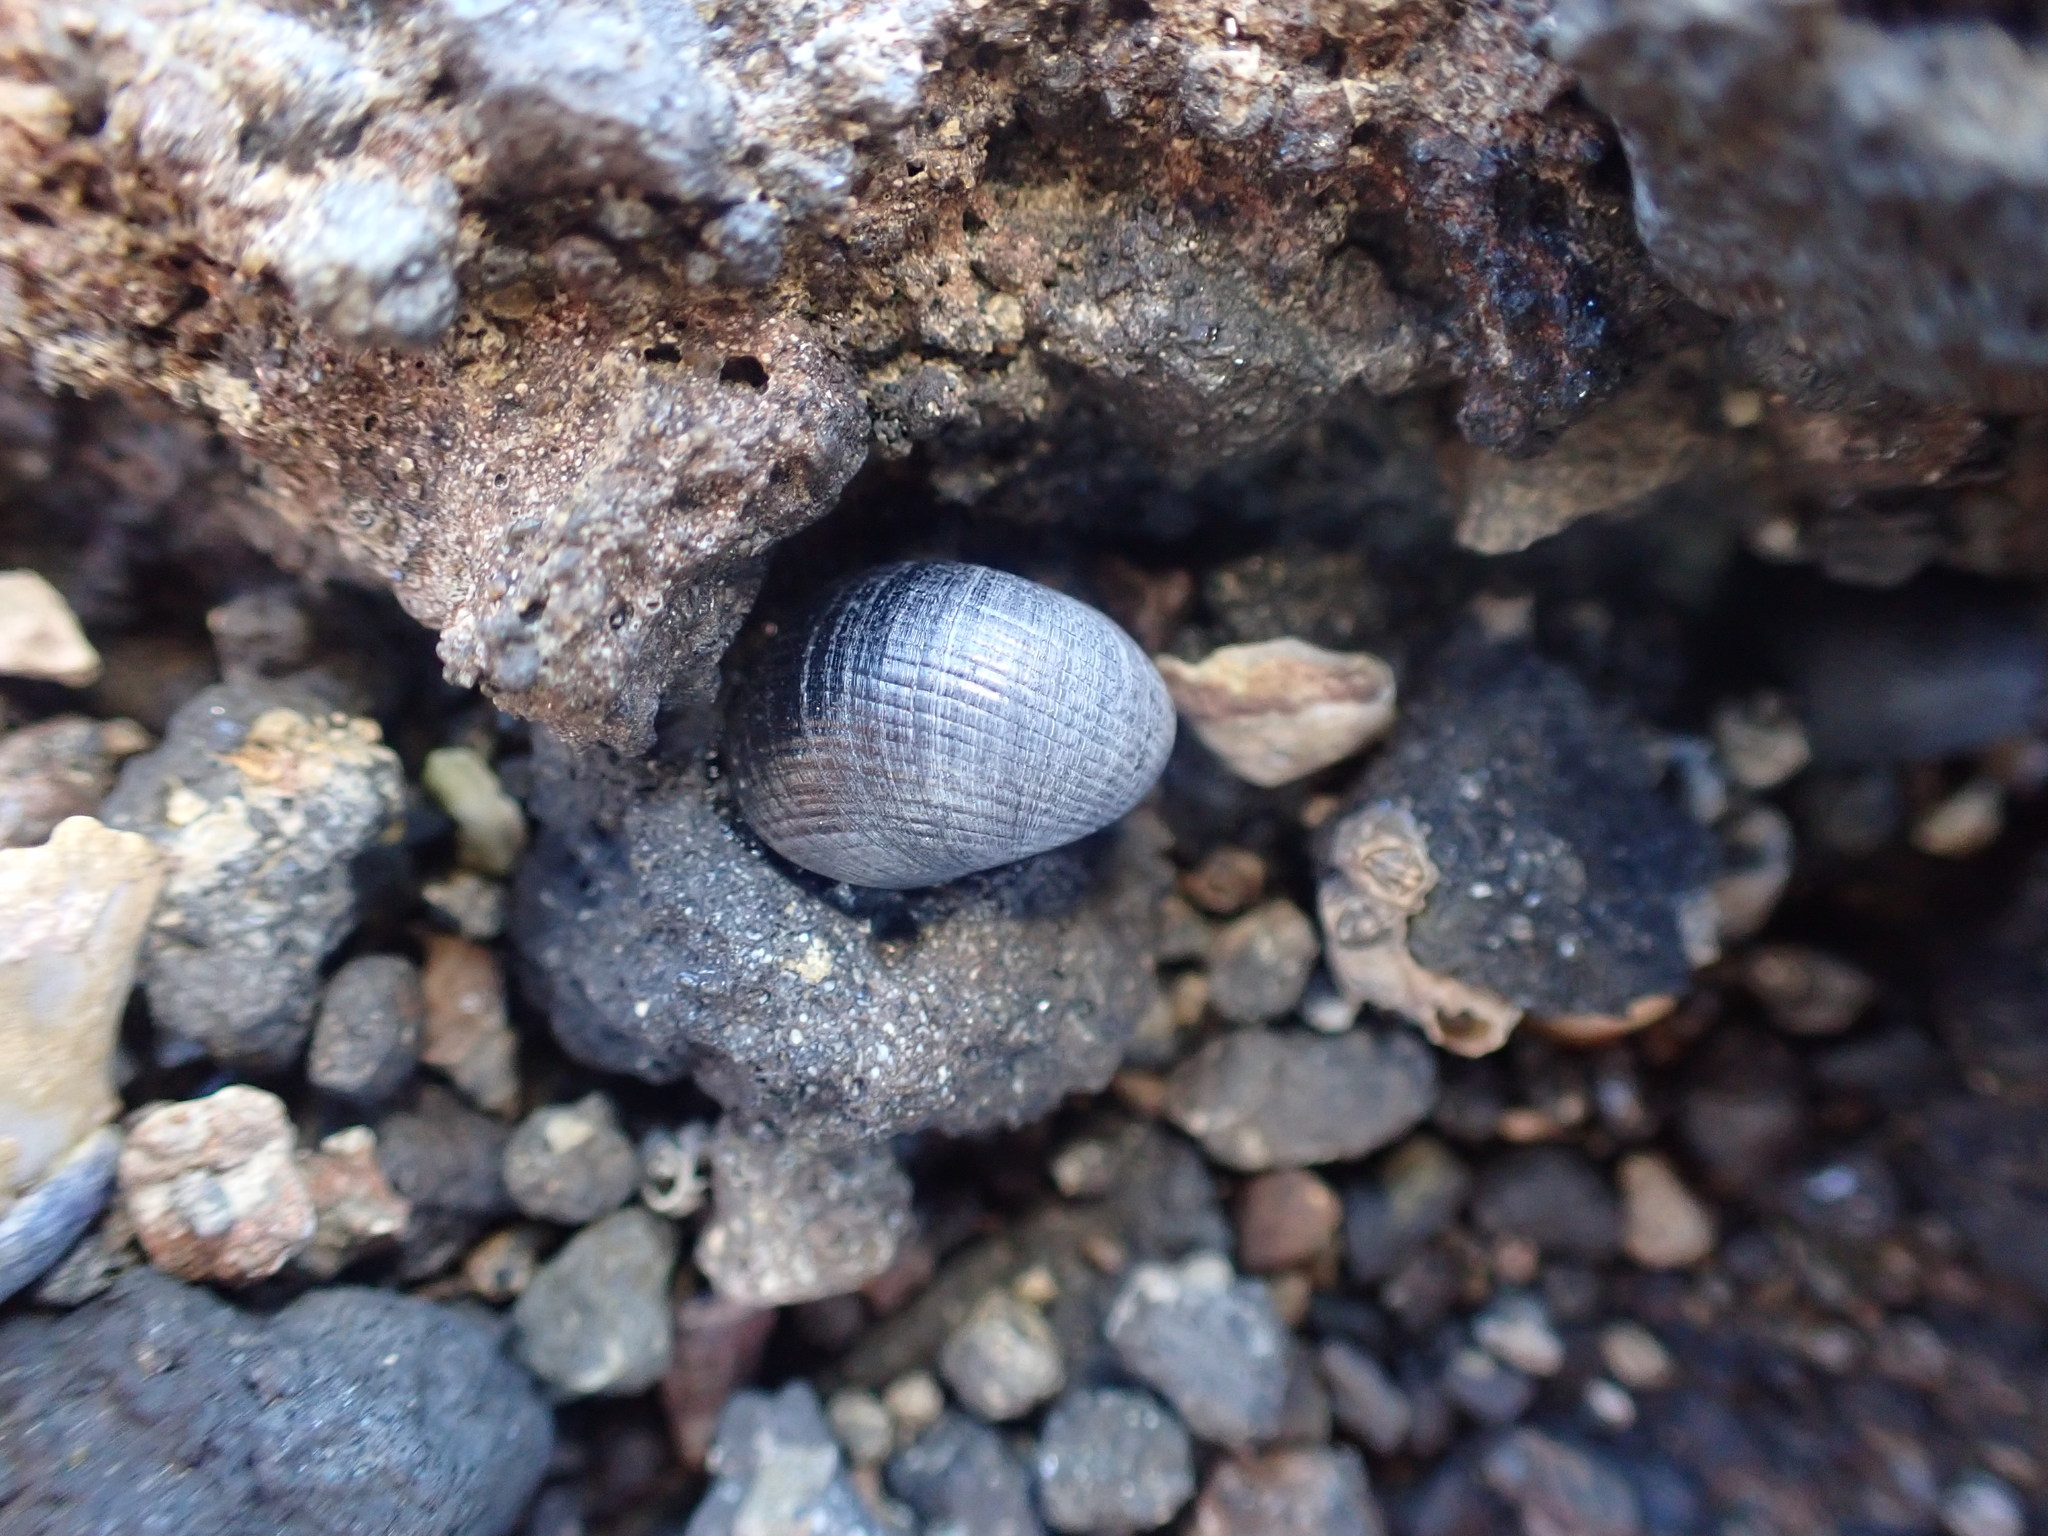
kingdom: Animalia
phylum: Mollusca
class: Gastropoda
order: Cycloneritida
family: Neritidae
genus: Nerita
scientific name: Nerita melanotragus
